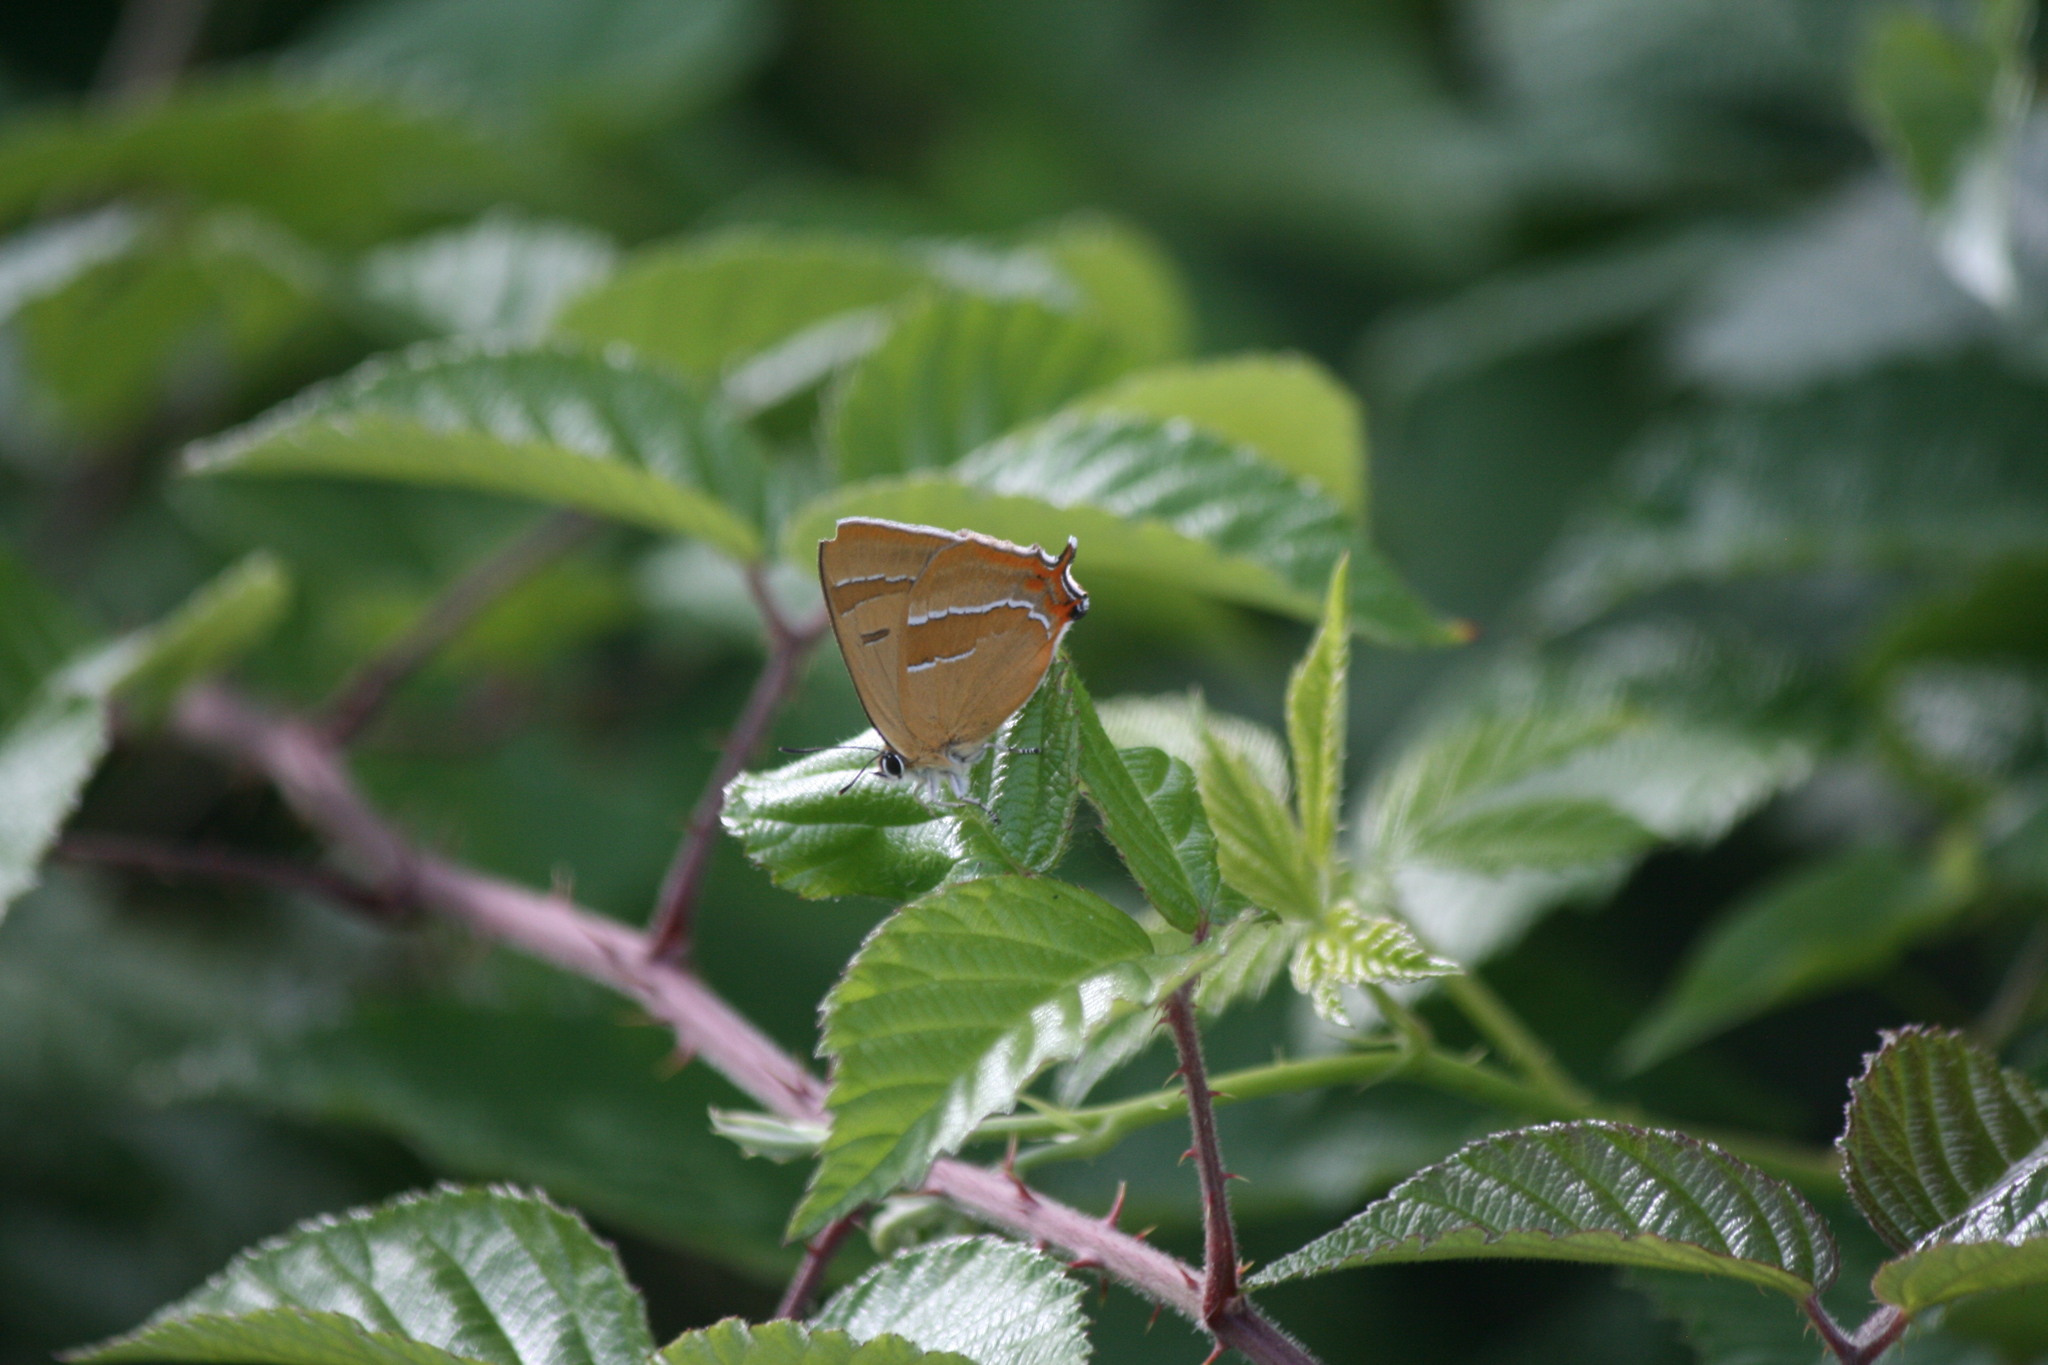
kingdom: Animalia
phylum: Arthropoda
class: Insecta
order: Lepidoptera
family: Lycaenidae
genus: Thecla
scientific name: Thecla betulae
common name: Brown hairstreak
